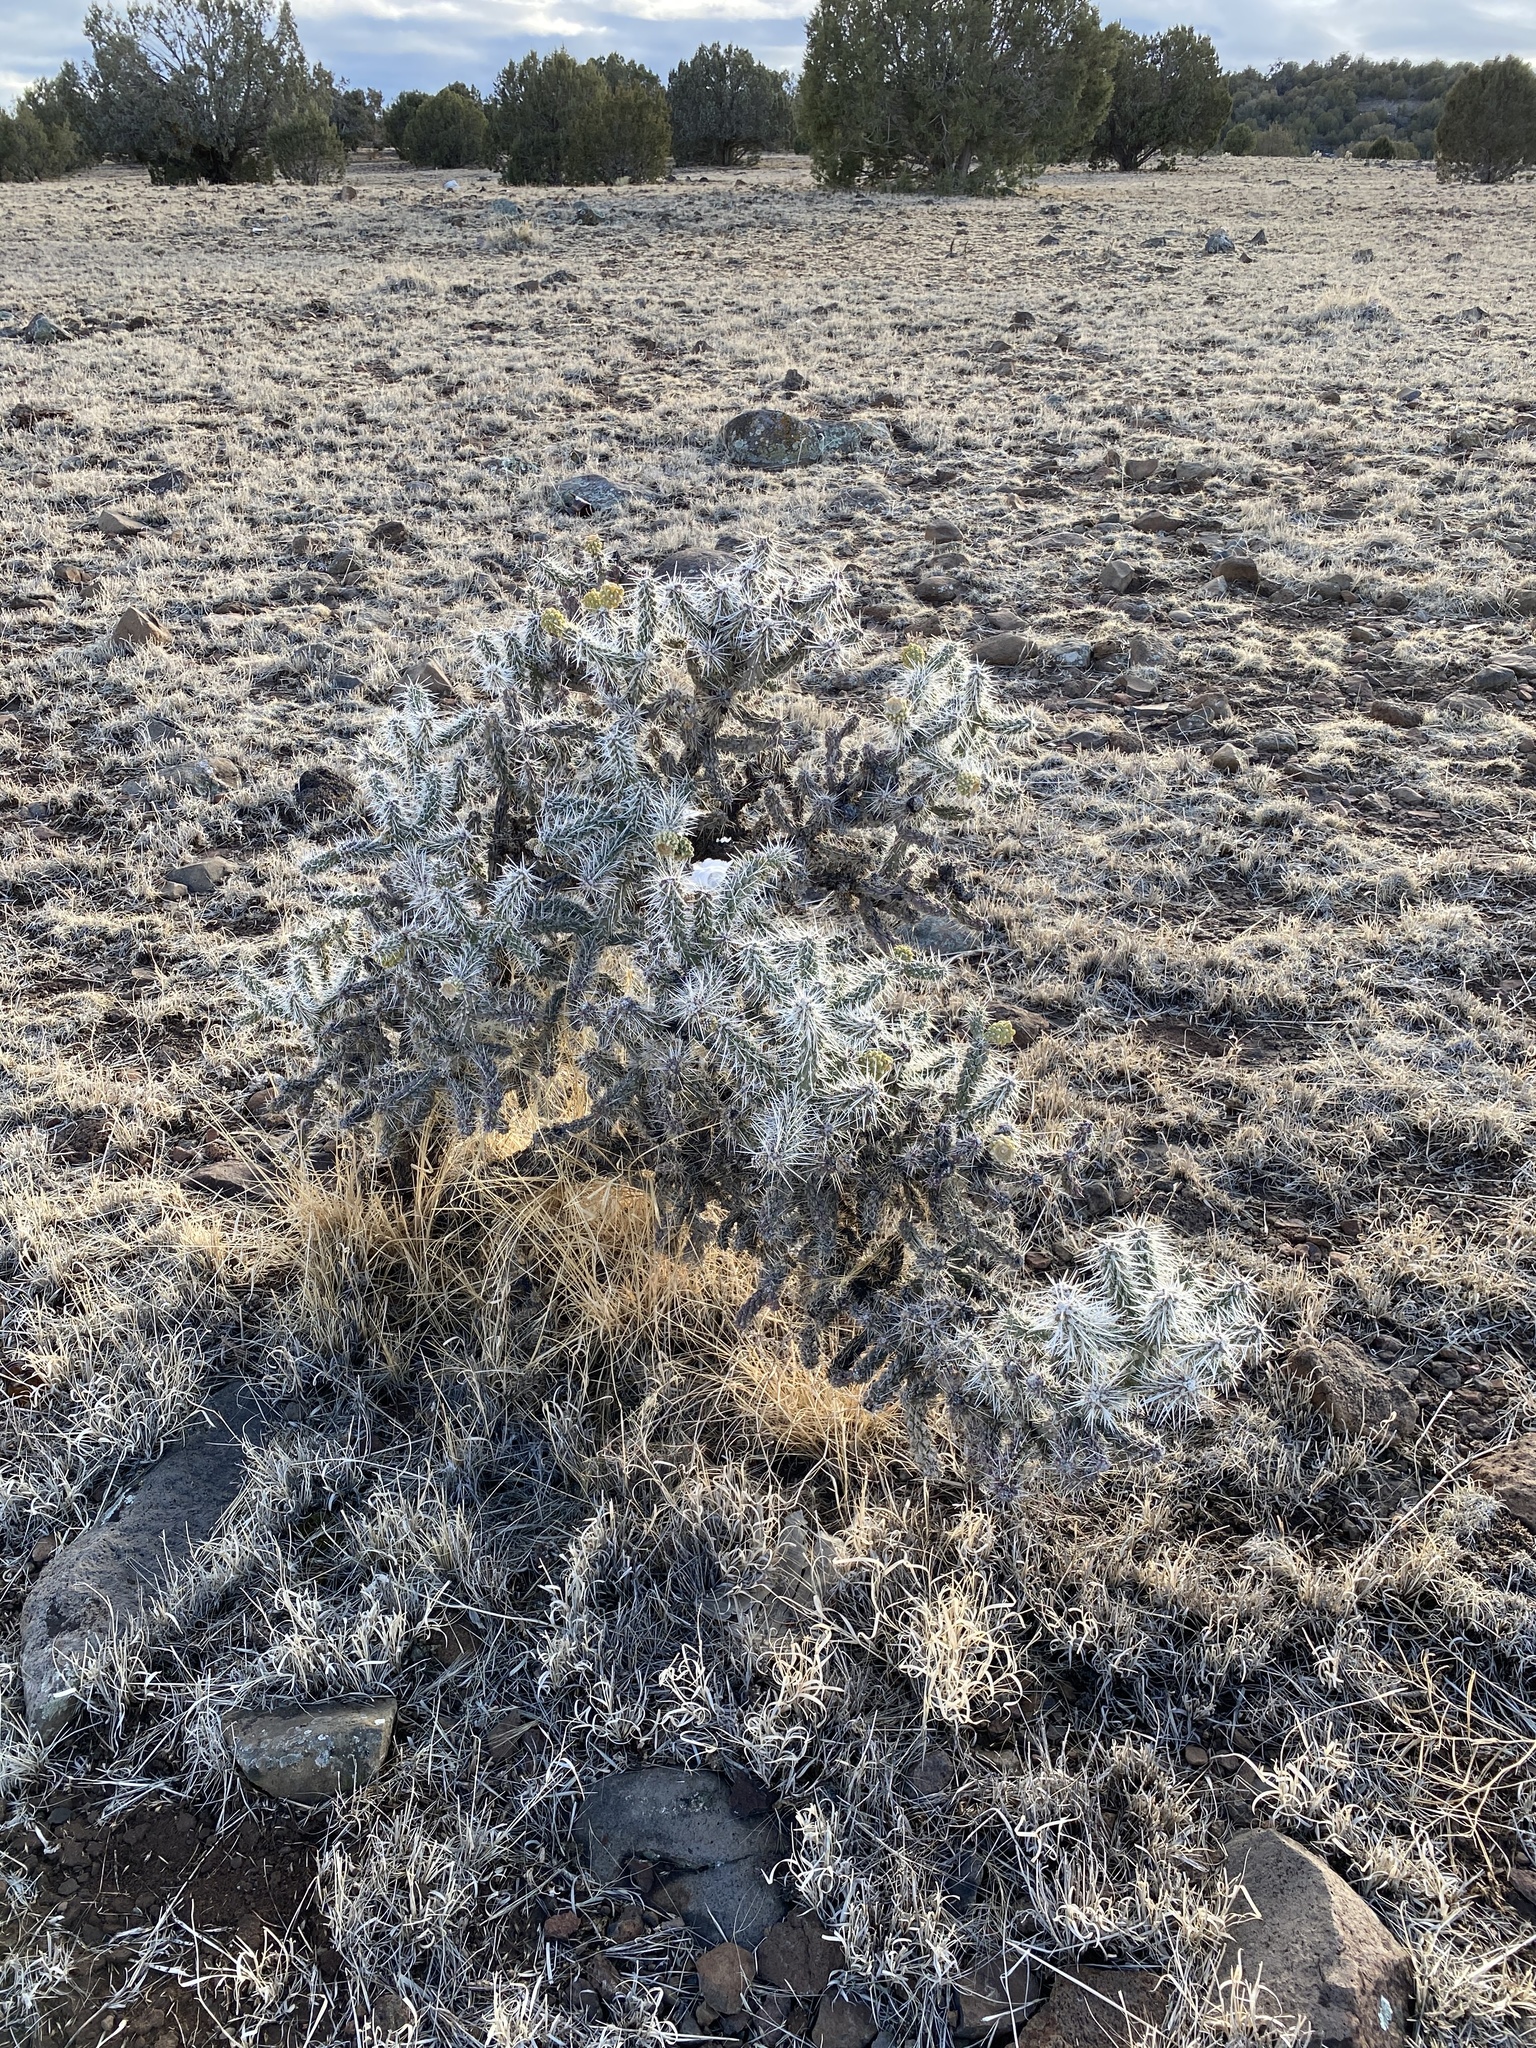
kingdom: Plantae
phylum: Tracheophyta
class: Magnoliopsida
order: Caryophyllales
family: Cactaceae
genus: Cylindropuntia
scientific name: Cylindropuntia whipplei
